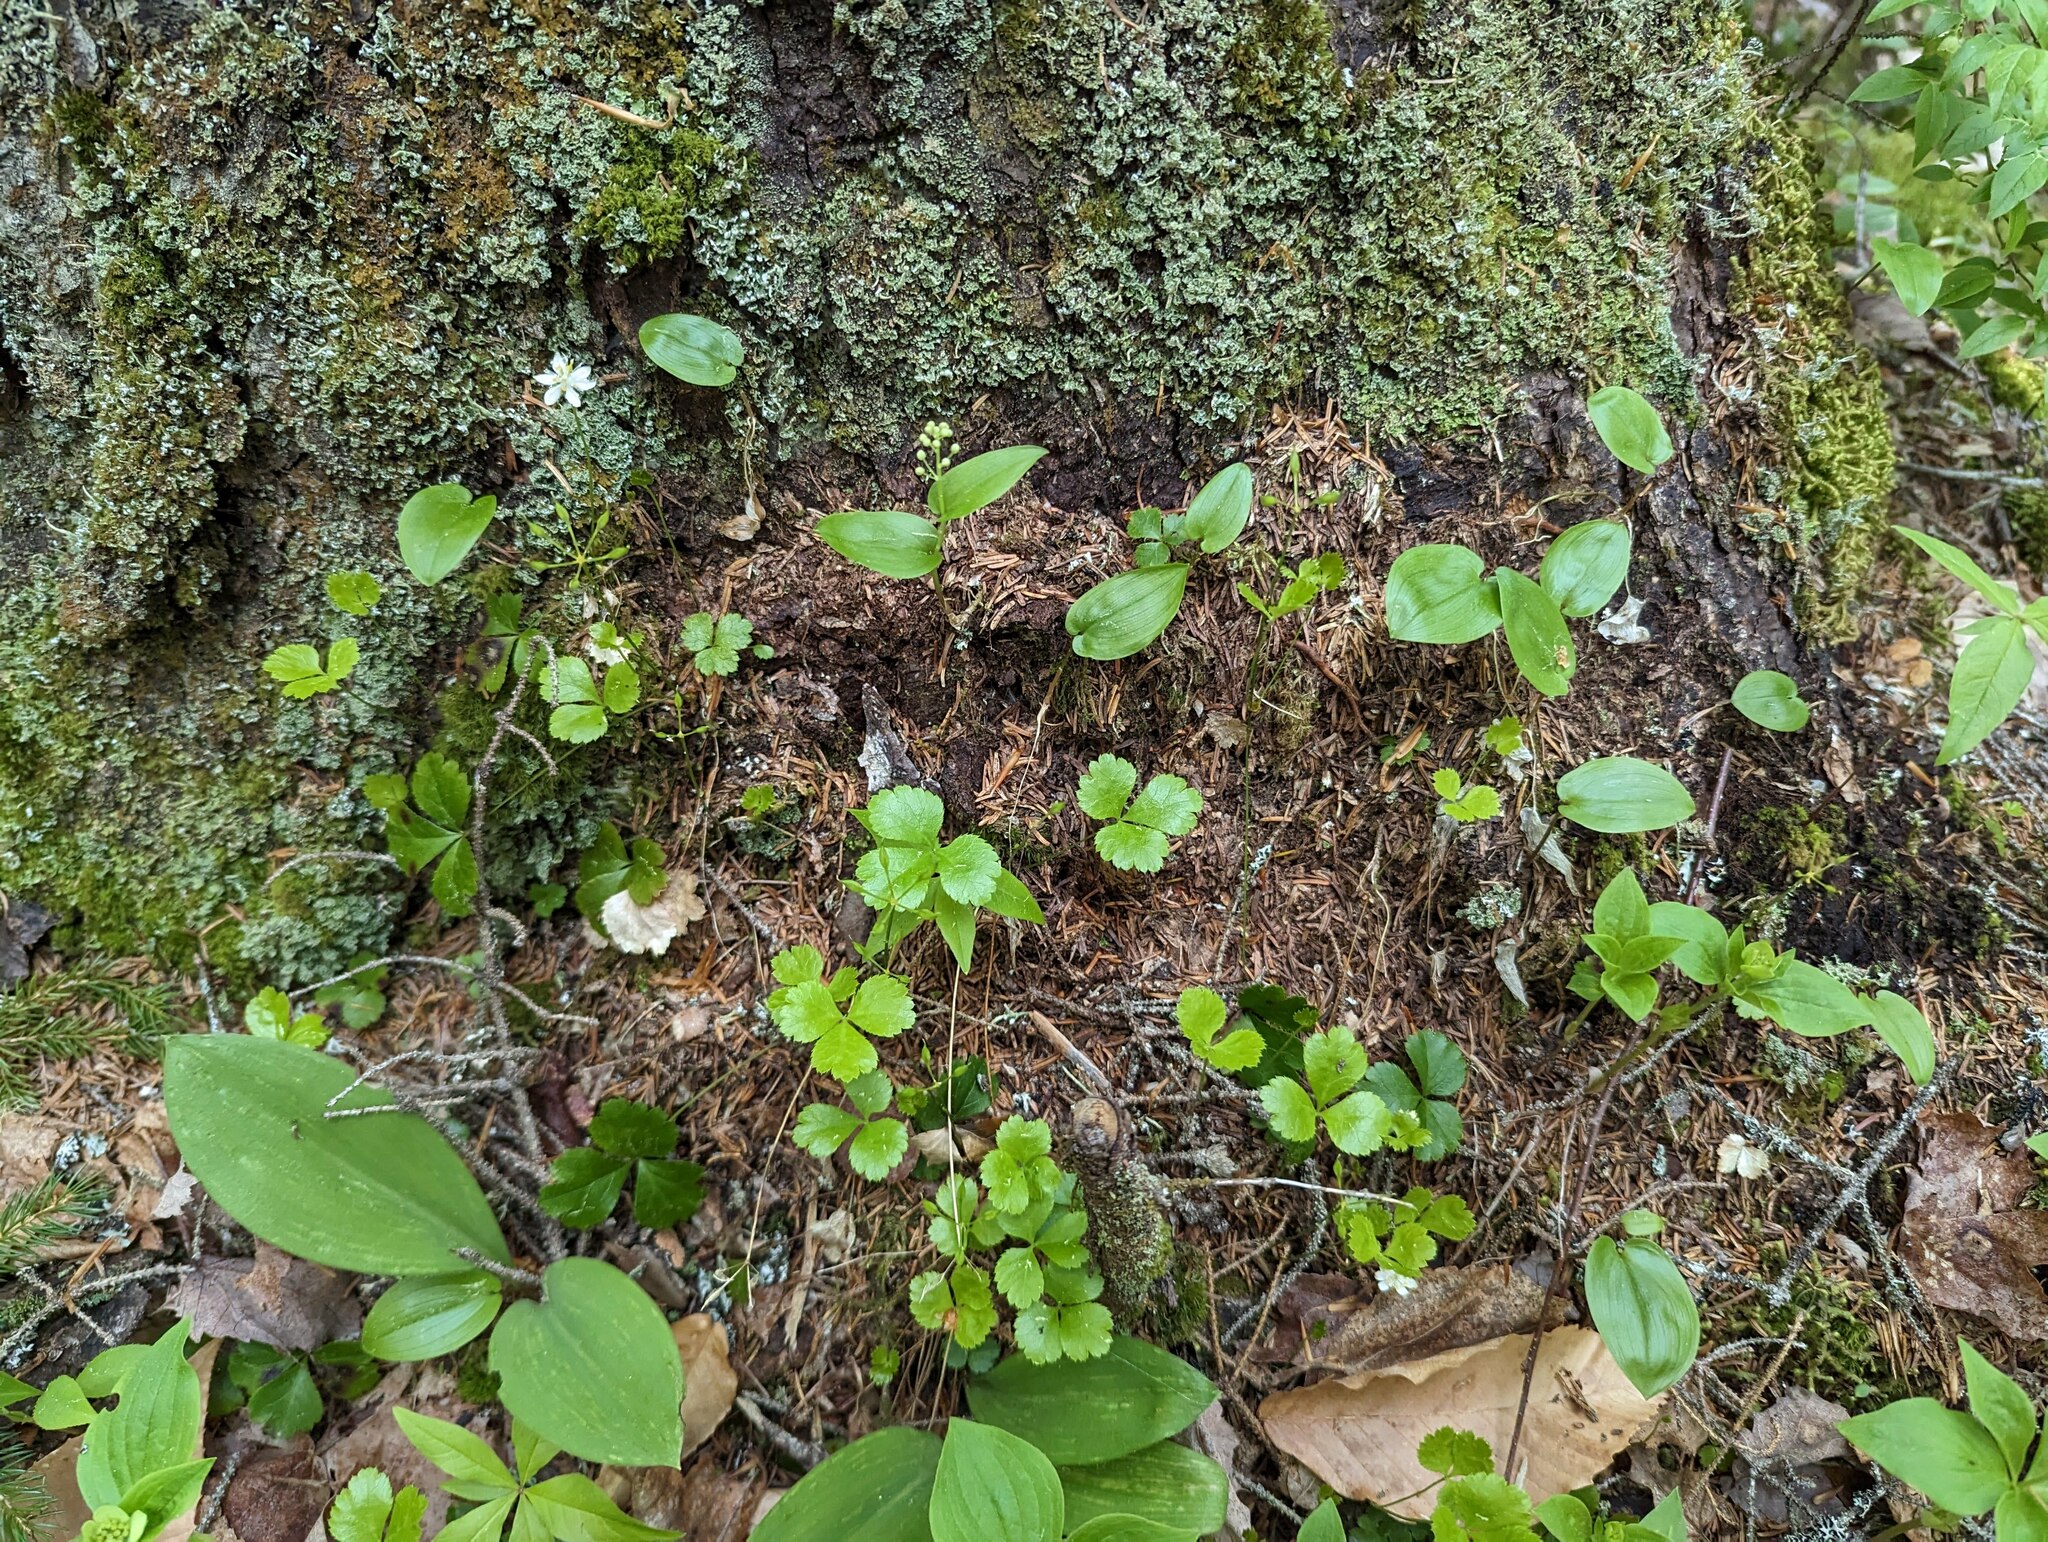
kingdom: Plantae
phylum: Tracheophyta
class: Magnoliopsida
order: Ranunculales
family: Ranunculaceae
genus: Coptis
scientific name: Coptis trifolia
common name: Canker-root
